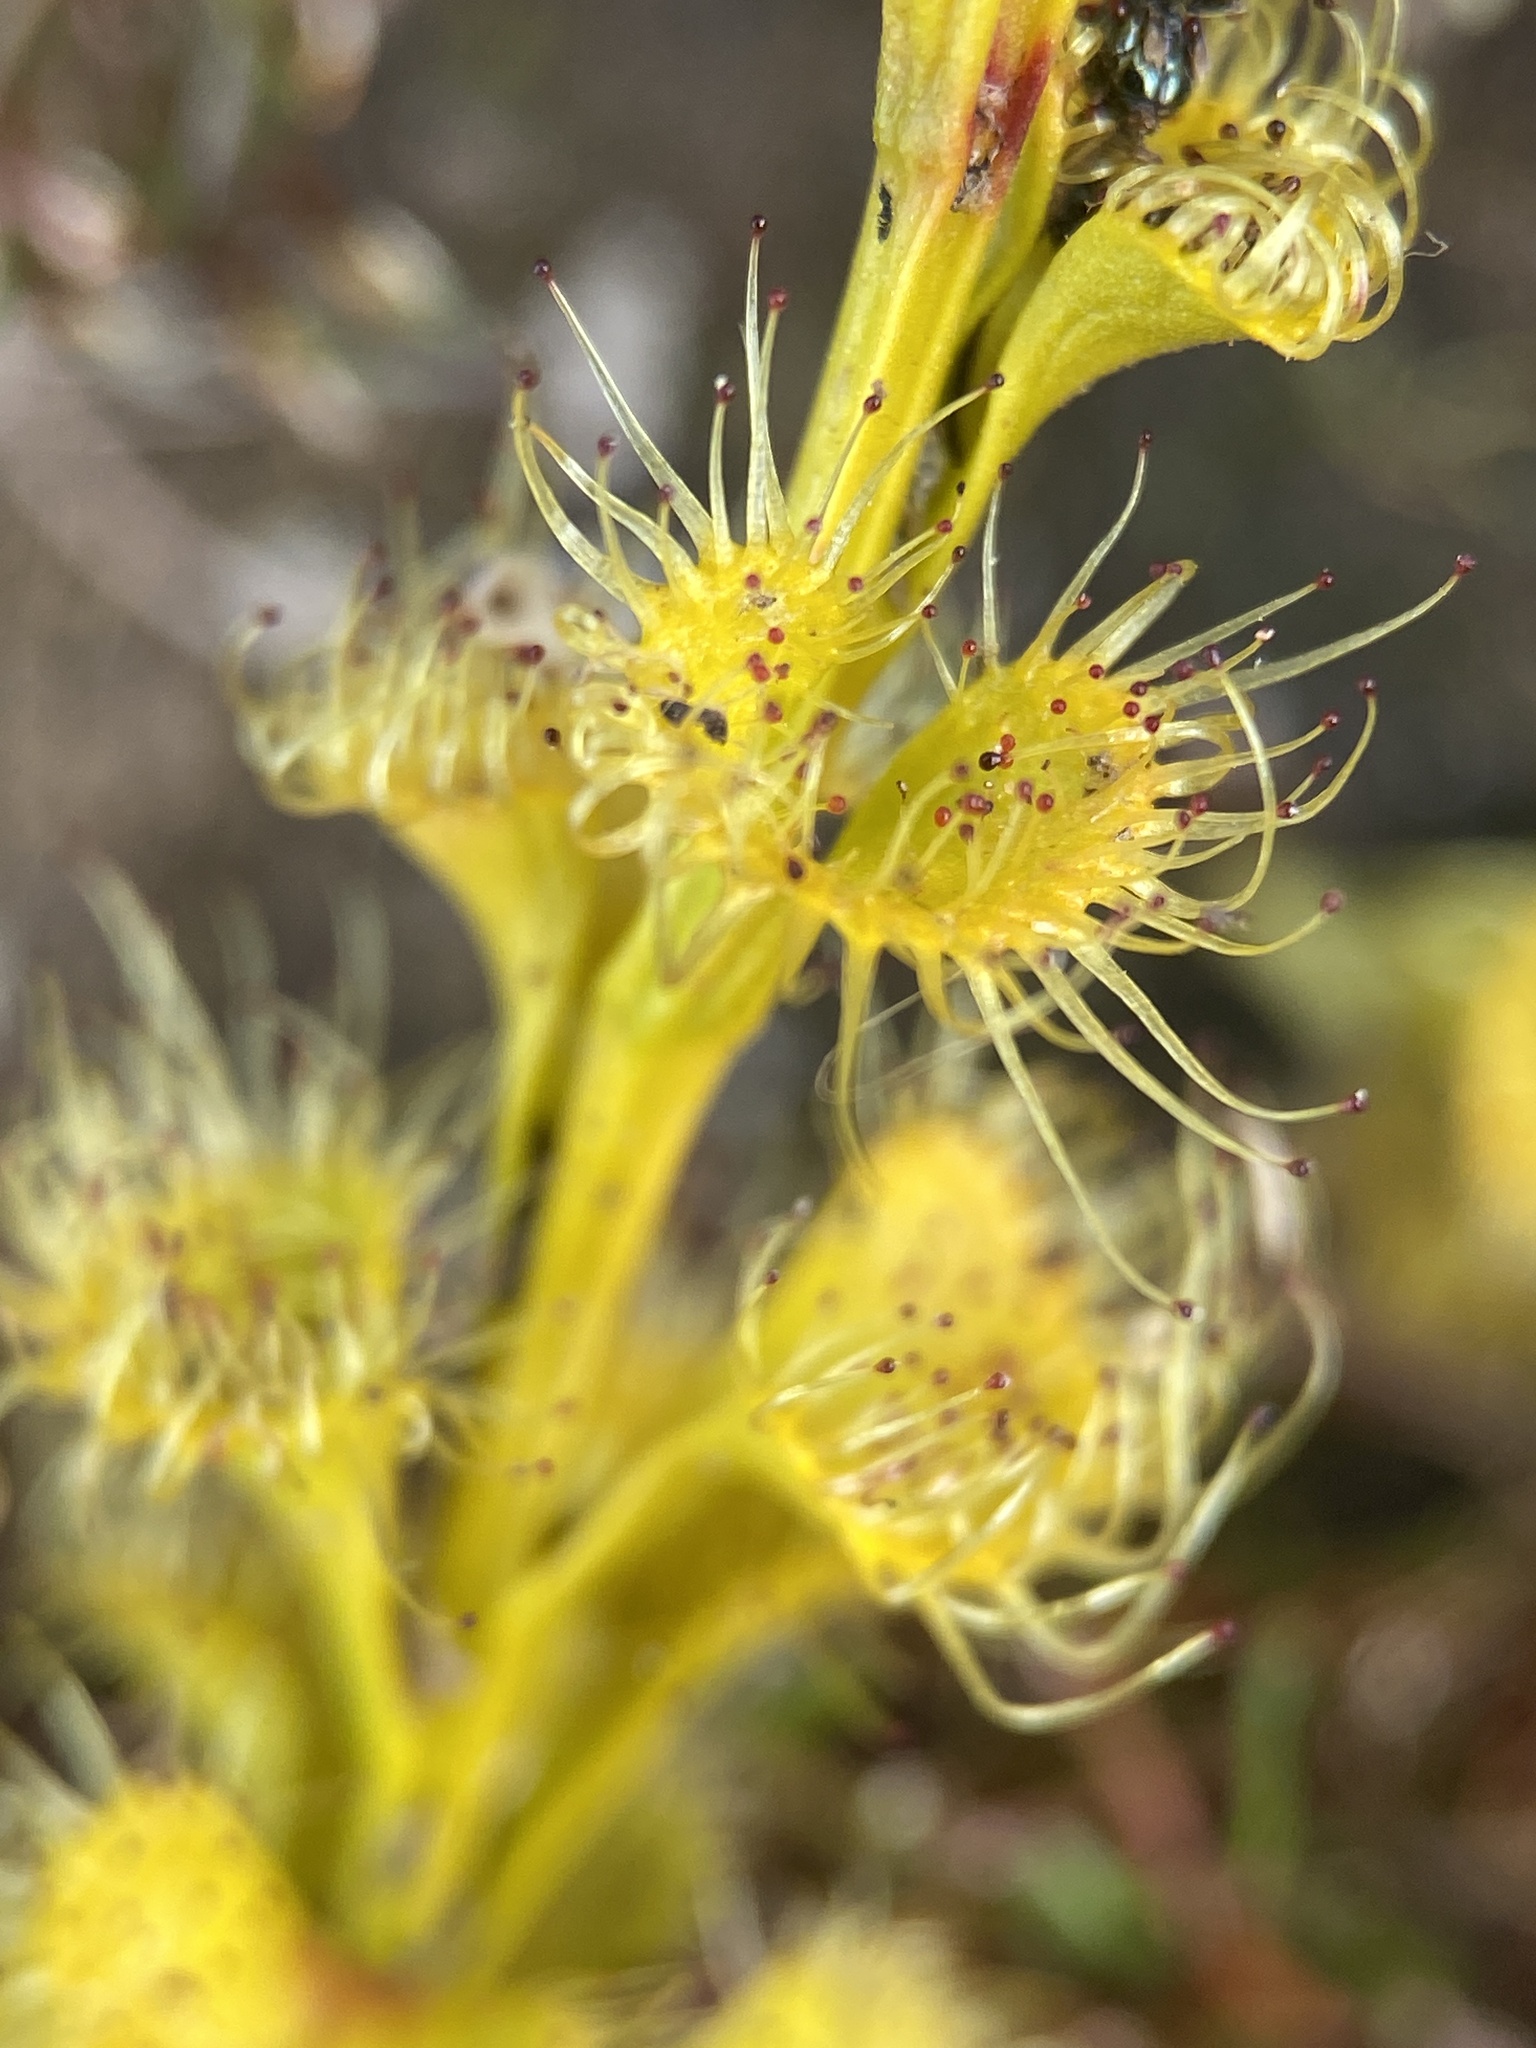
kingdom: Plantae
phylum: Tracheophyta
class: Magnoliopsida
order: Caryophyllales
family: Droseraceae
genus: Drosera
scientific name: Drosera ramellosa
